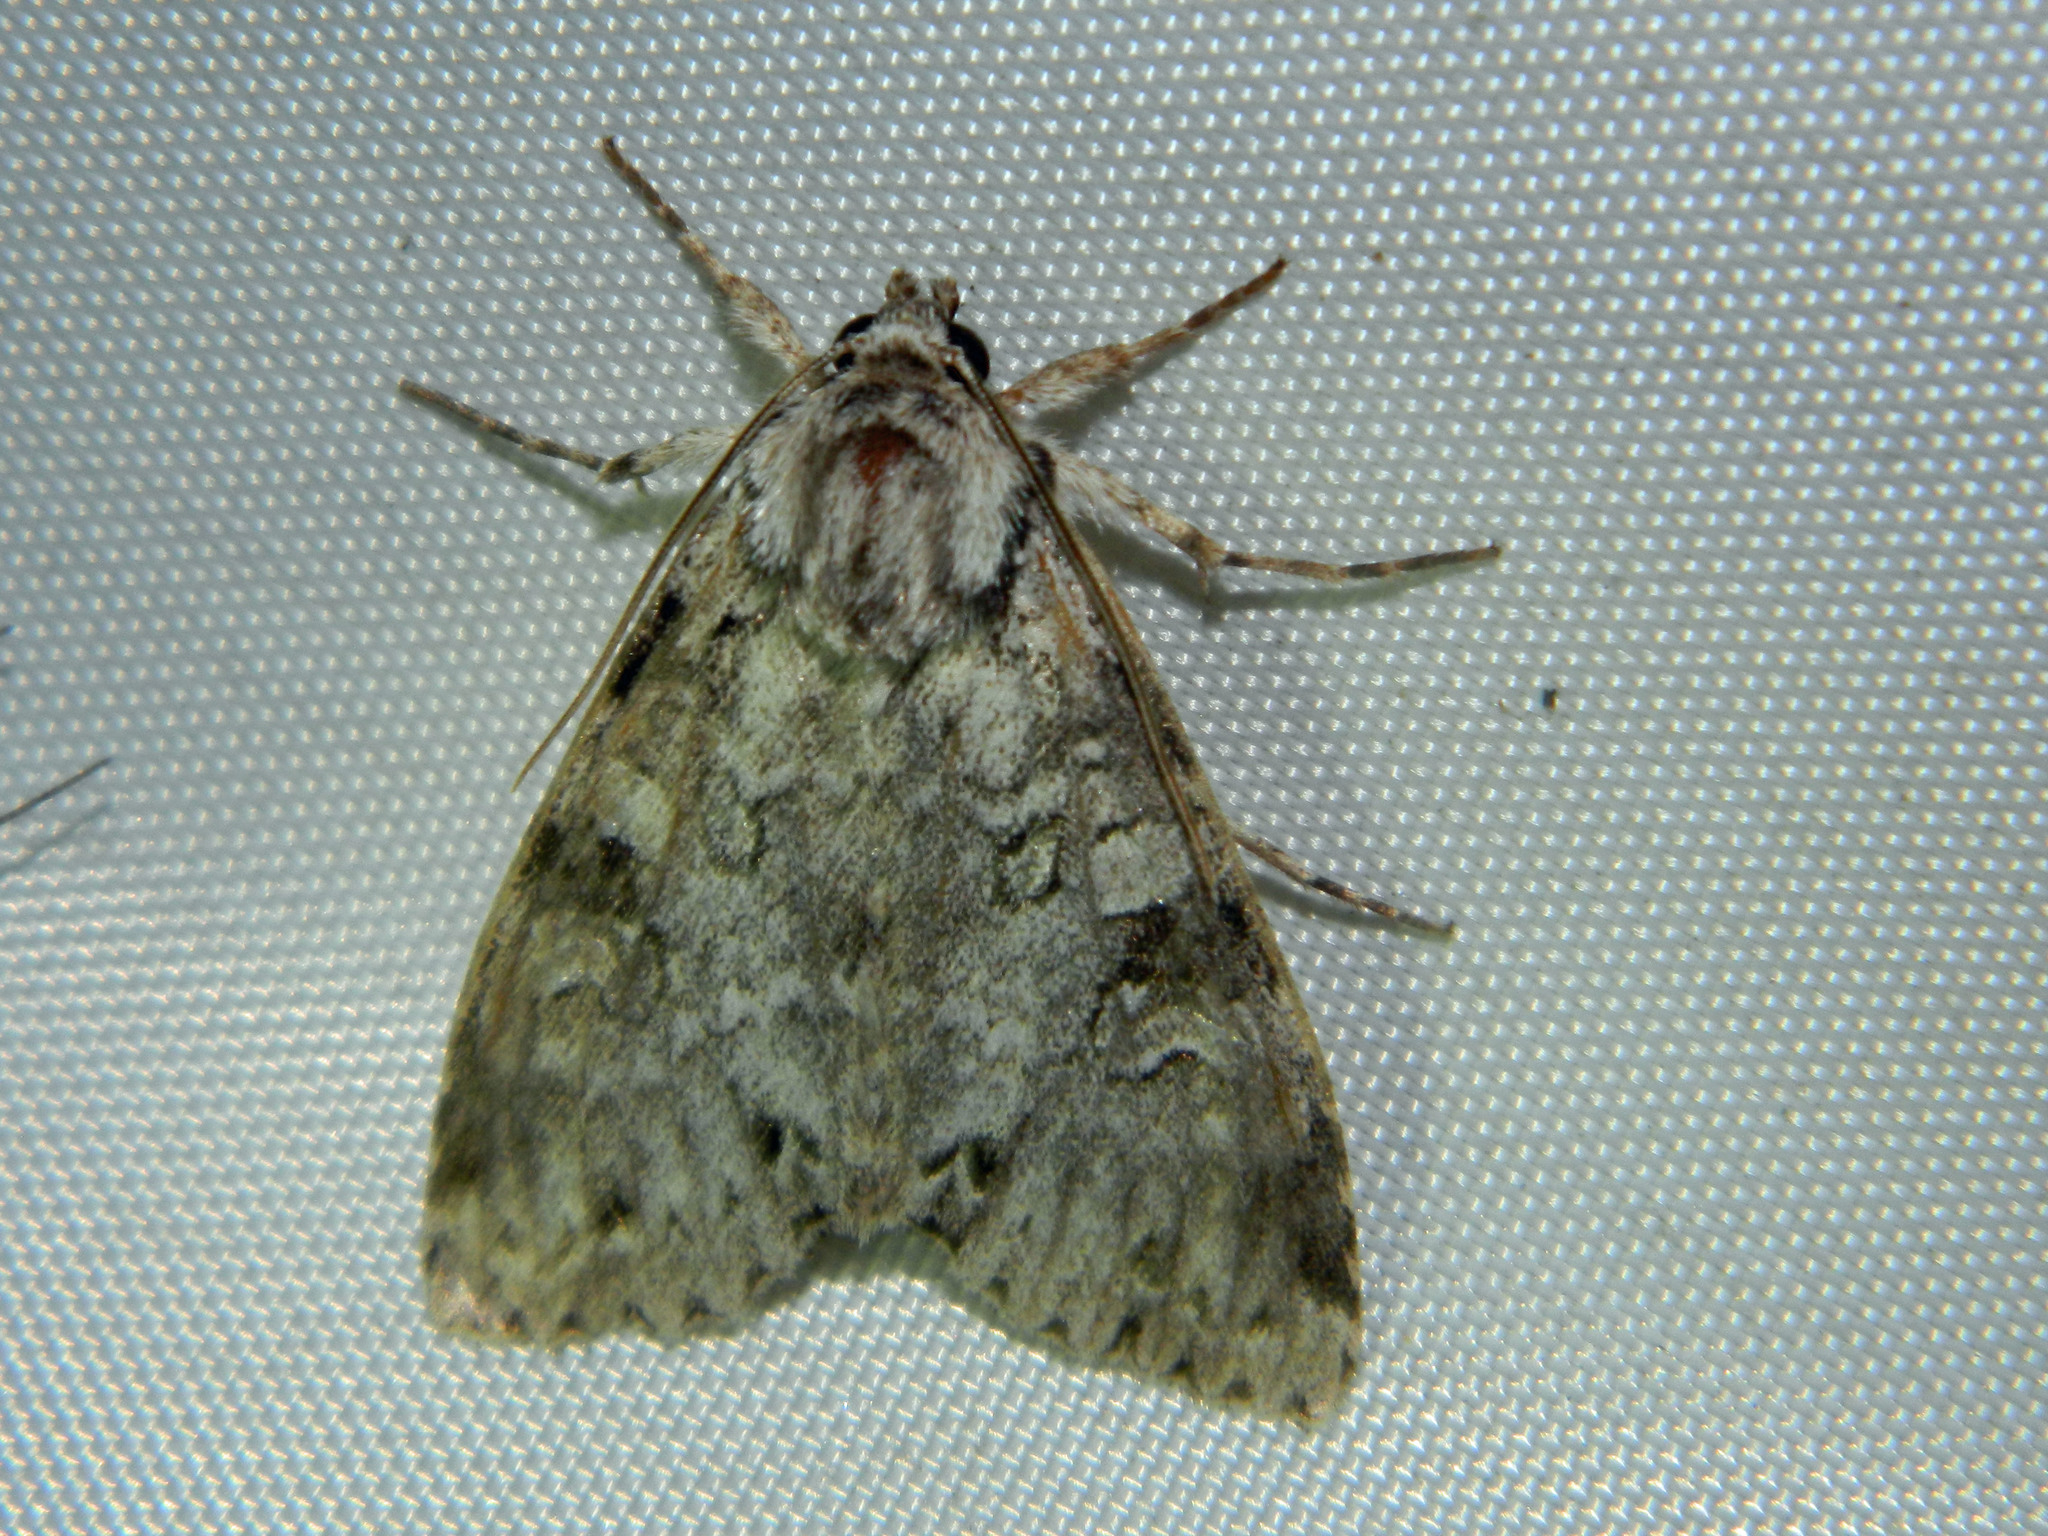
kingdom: Animalia
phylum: Arthropoda
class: Insecta
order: Lepidoptera
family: Noctuidae
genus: Polia
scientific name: Polia nimbosa
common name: Stormy arches
